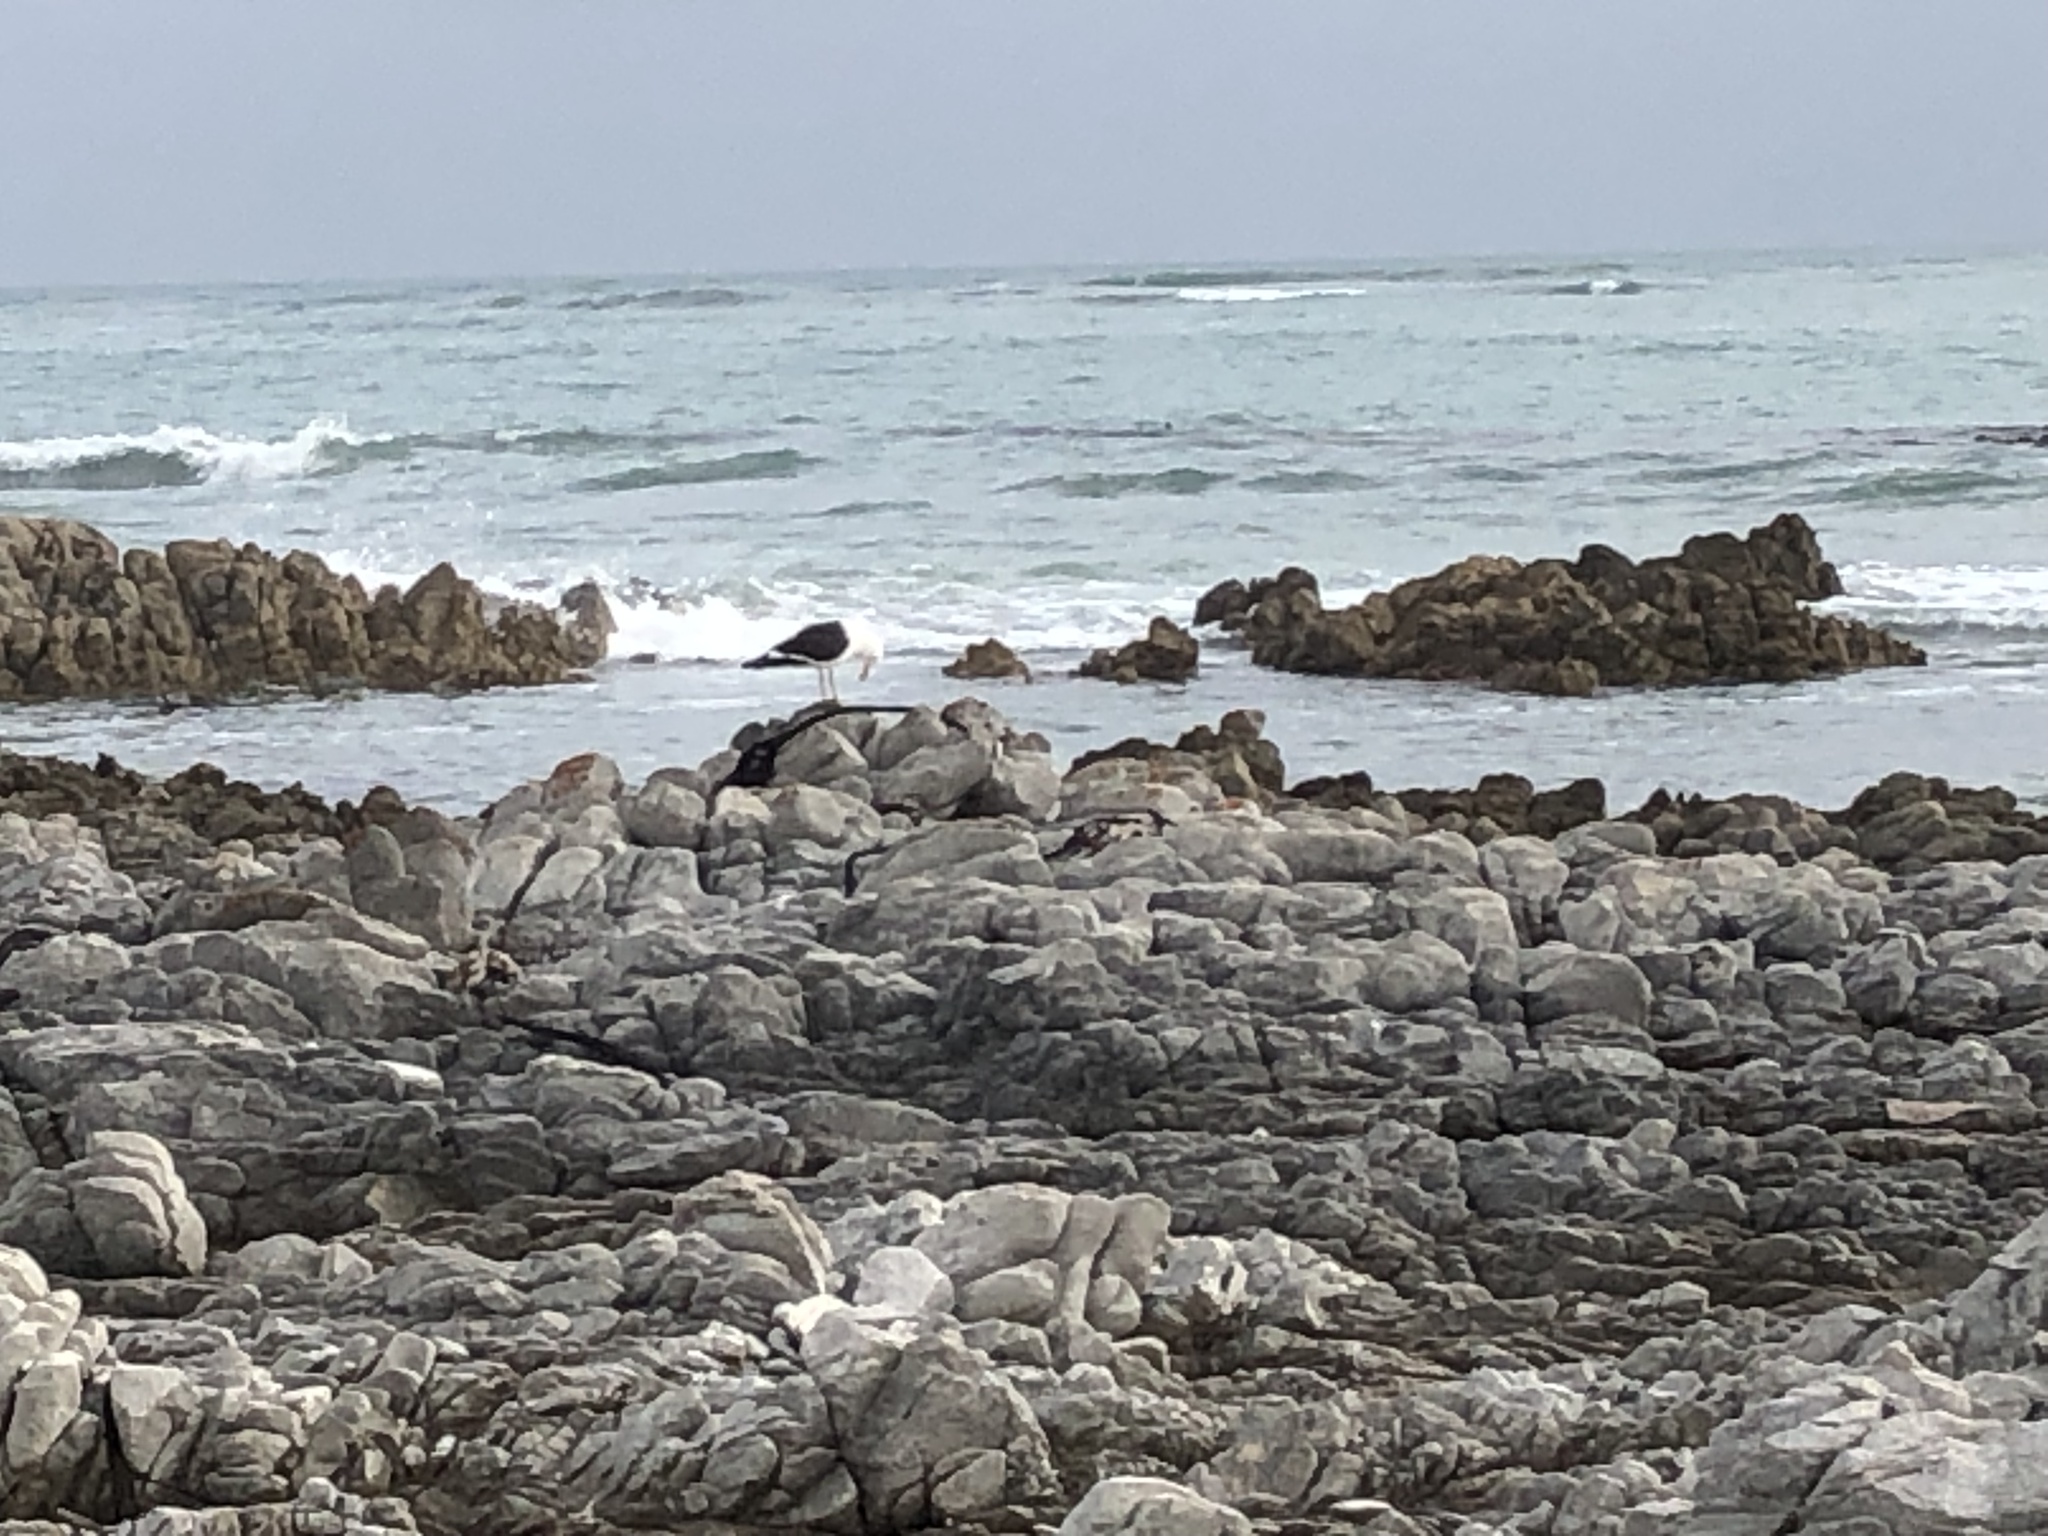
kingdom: Animalia
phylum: Chordata
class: Aves
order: Charadriiformes
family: Laridae
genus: Larus
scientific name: Larus dominicanus
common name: Kelp gull
